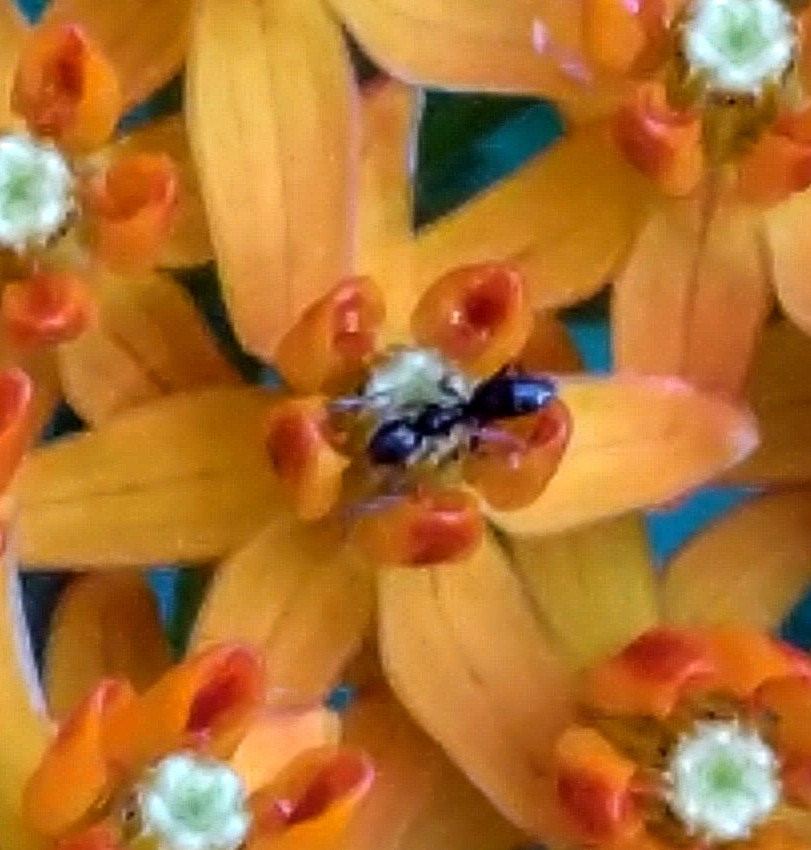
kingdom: Animalia
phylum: Arthropoda
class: Insecta
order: Hymenoptera
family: Formicidae
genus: Tapinoma
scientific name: Tapinoma sessile
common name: Odorous house ant
